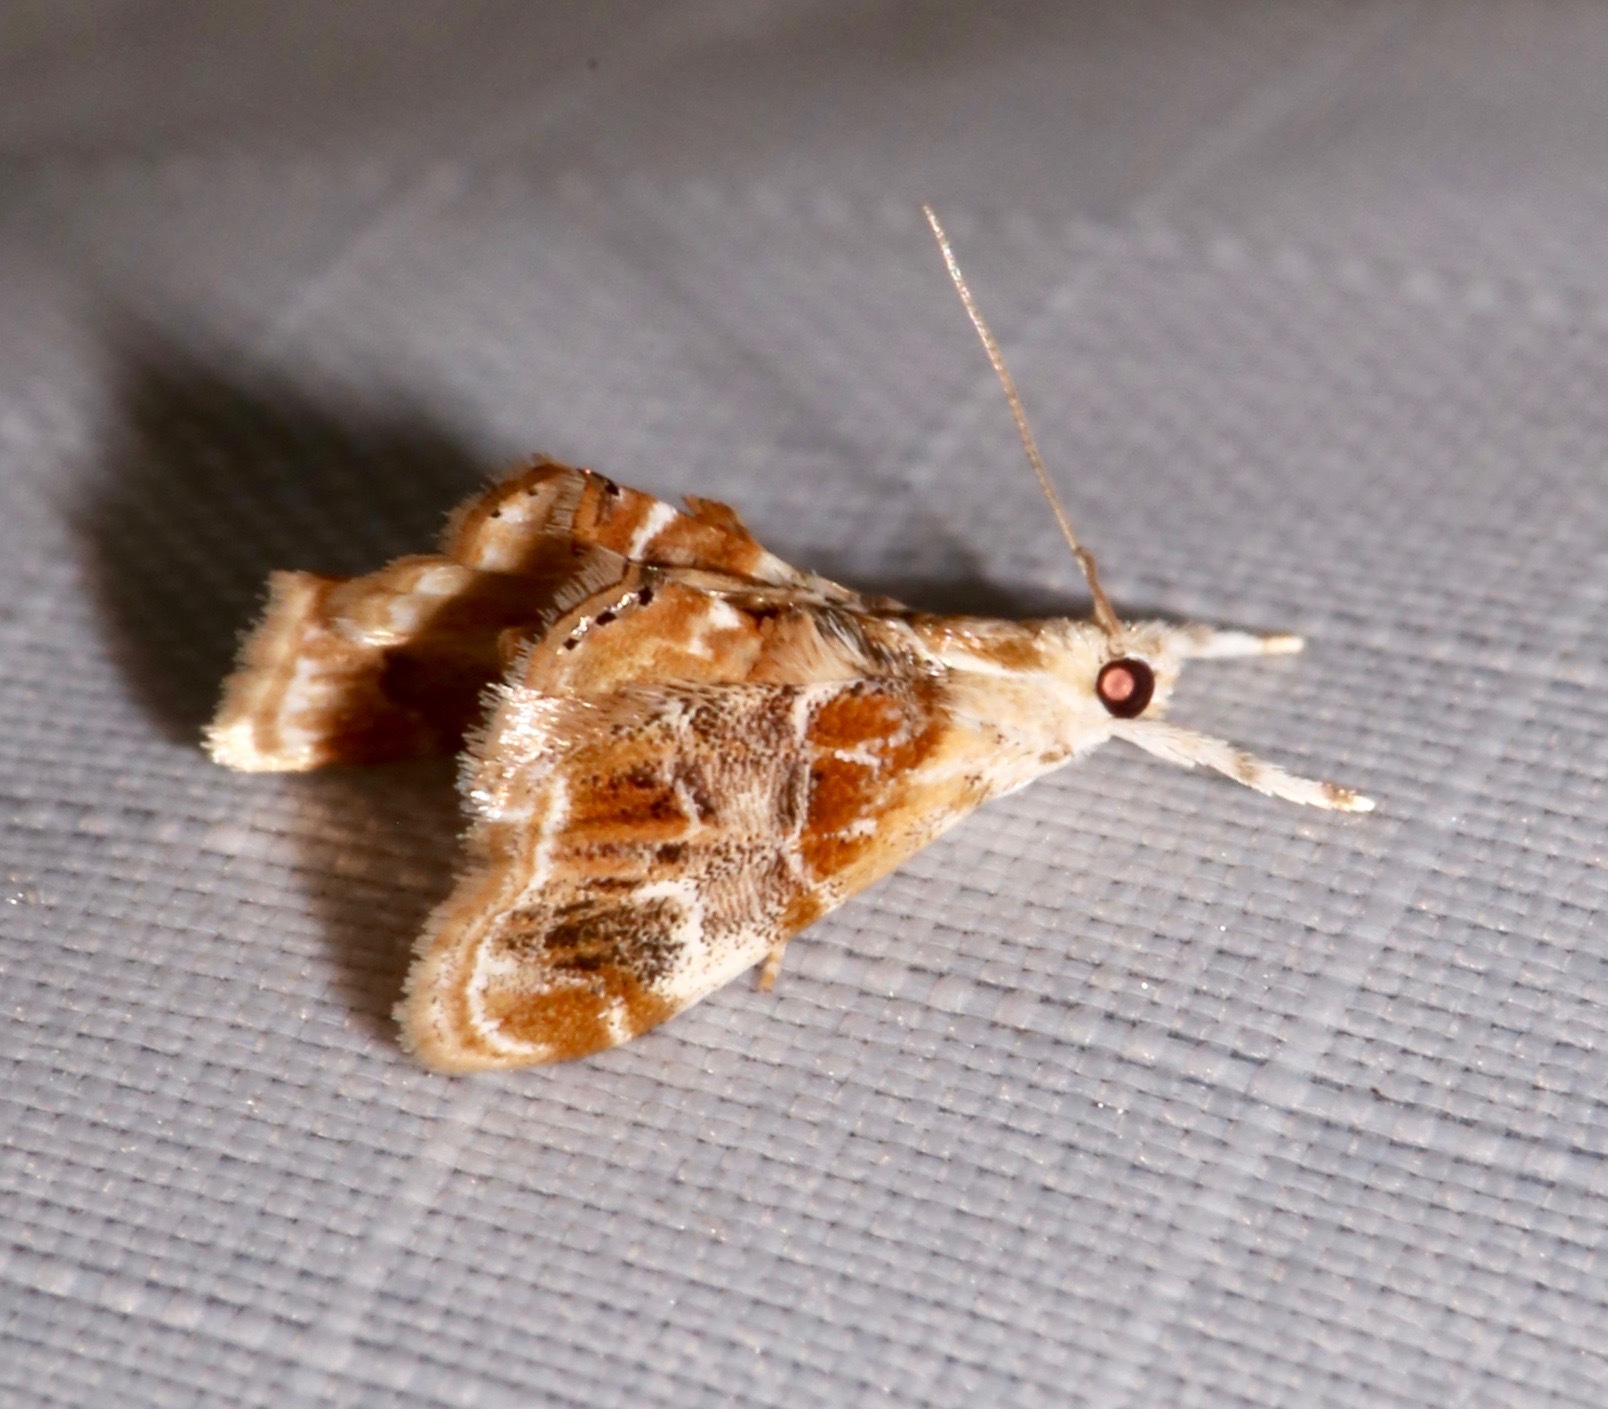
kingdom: Animalia
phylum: Arthropoda
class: Insecta
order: Lepidoptera
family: Crambidae
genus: Dicymolomia
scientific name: Dicymolomia julianalis
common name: Julia's dicymolomia moth
